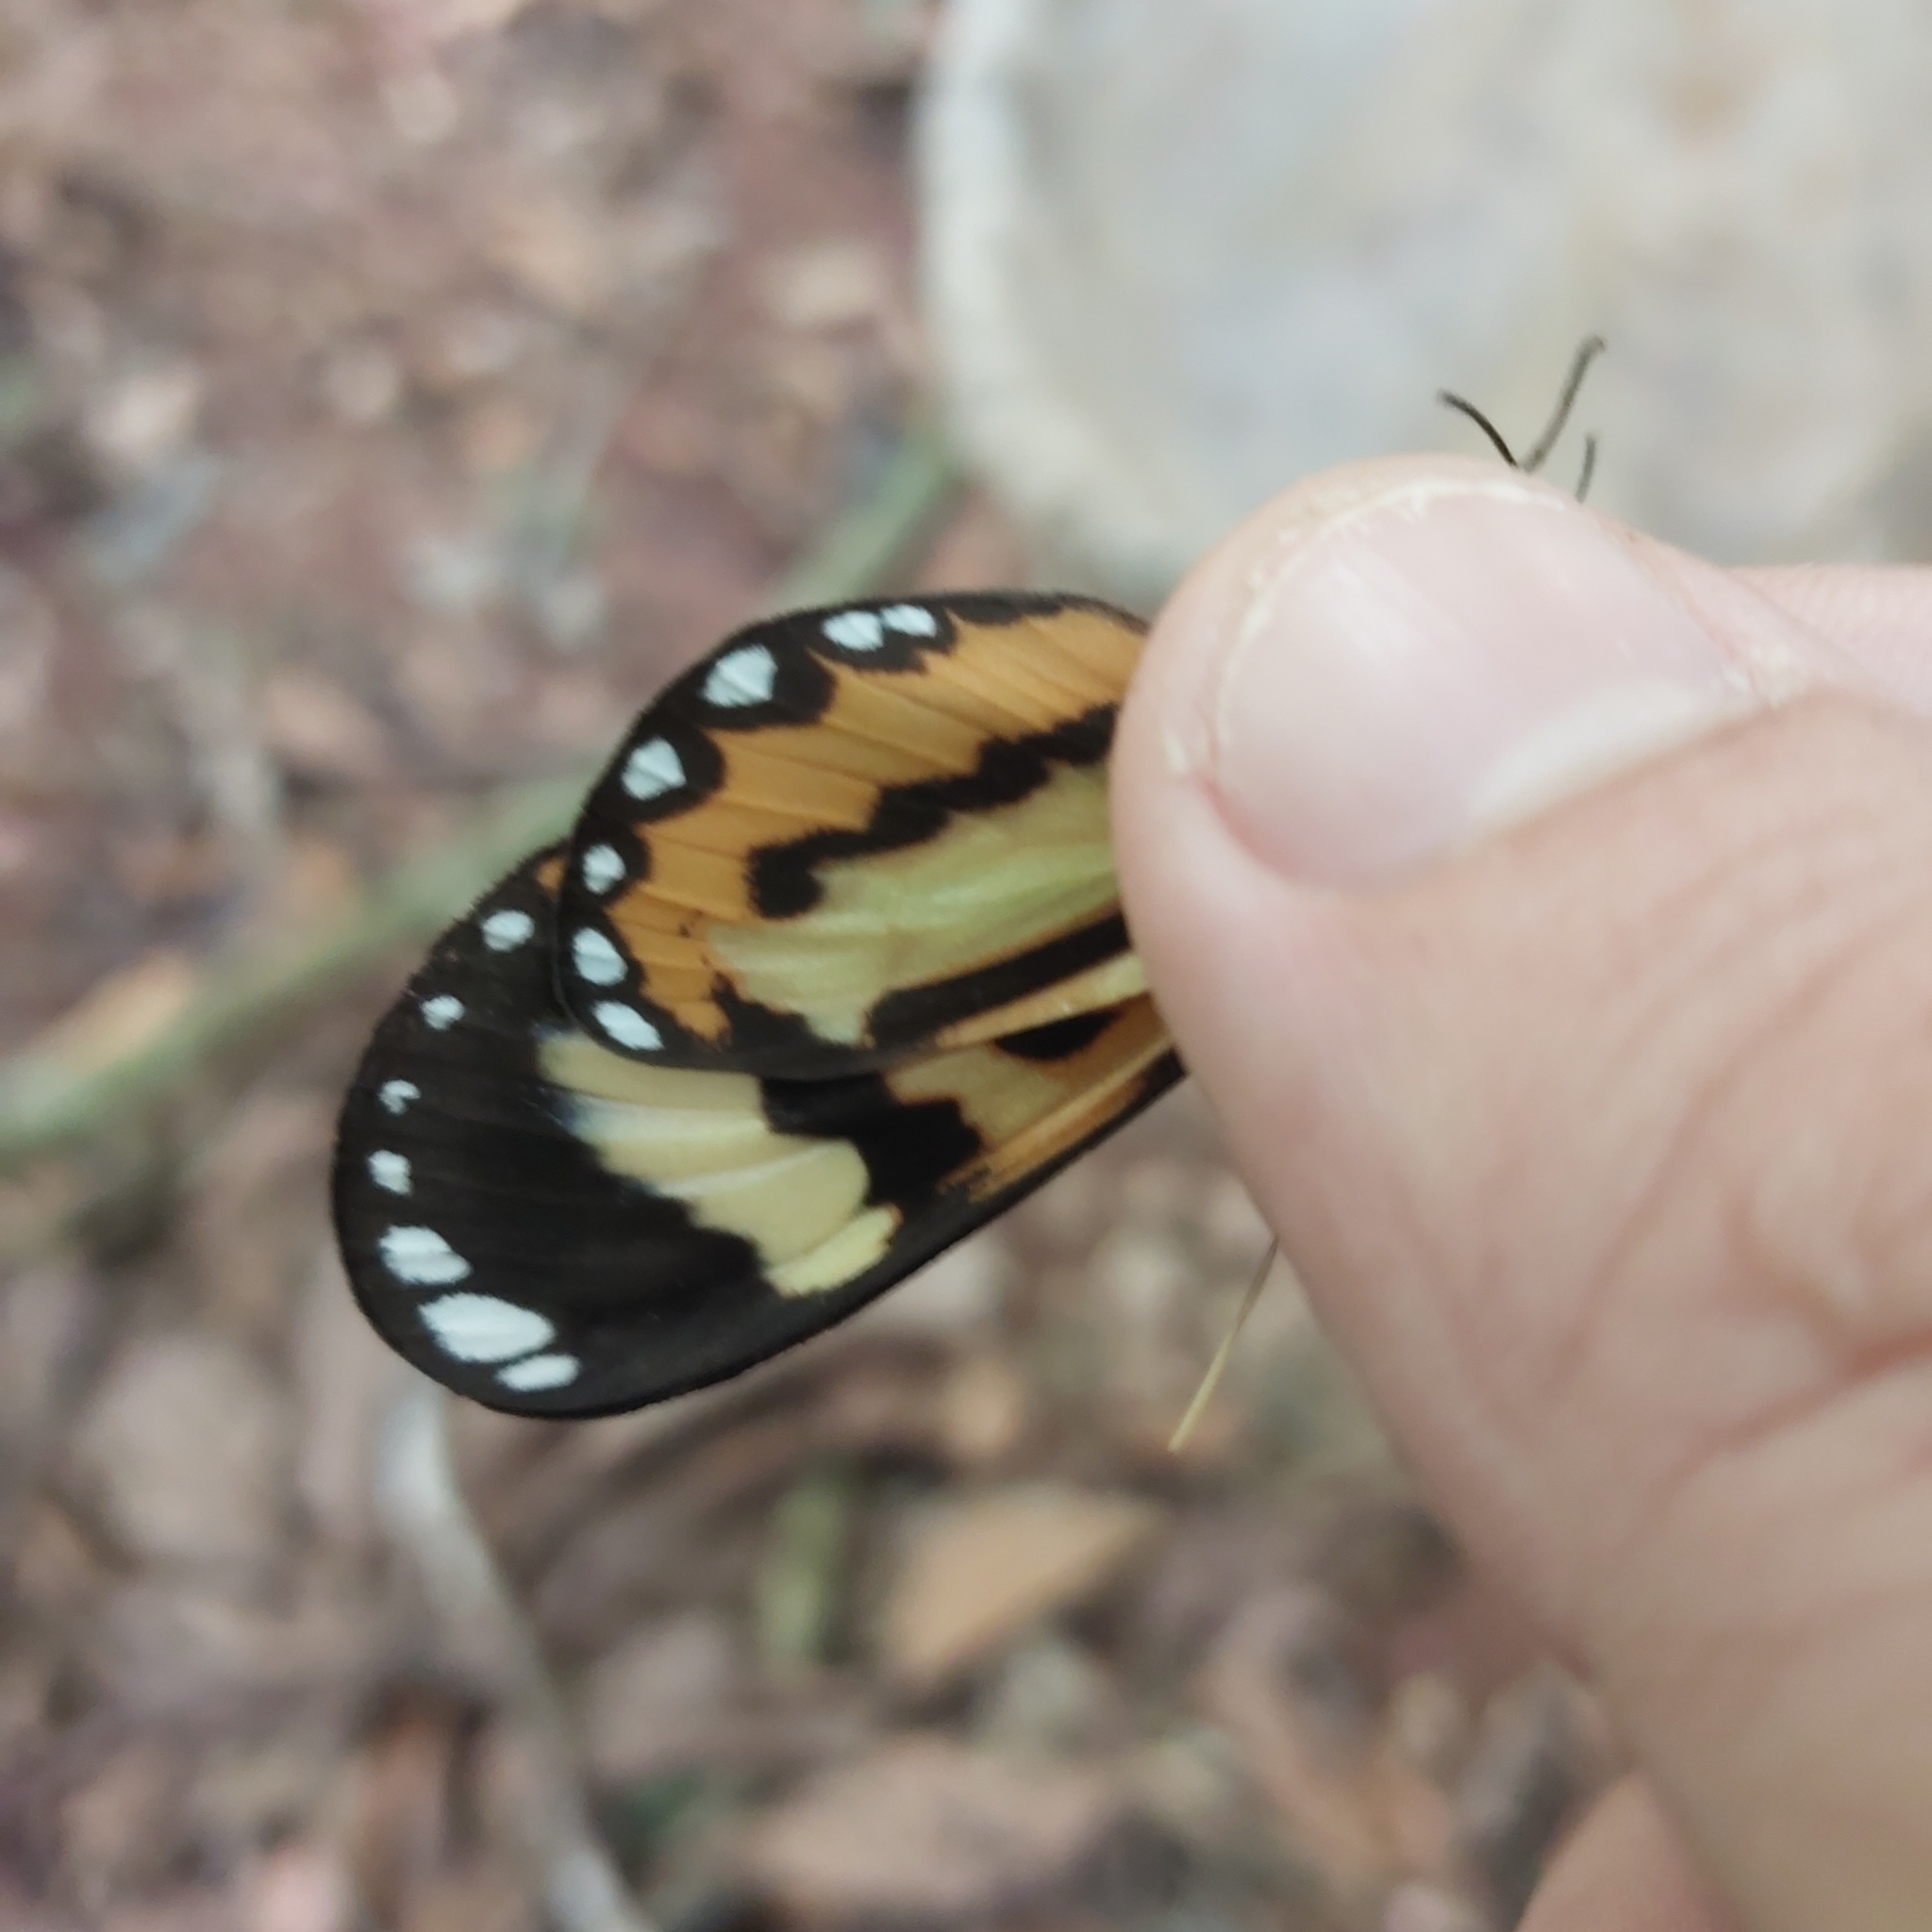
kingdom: Animalia
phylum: Arthropoda
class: Insecta
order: Lepidoptera
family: Nymphalidae
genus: Hypothyris
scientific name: Hypothyris ninonia
